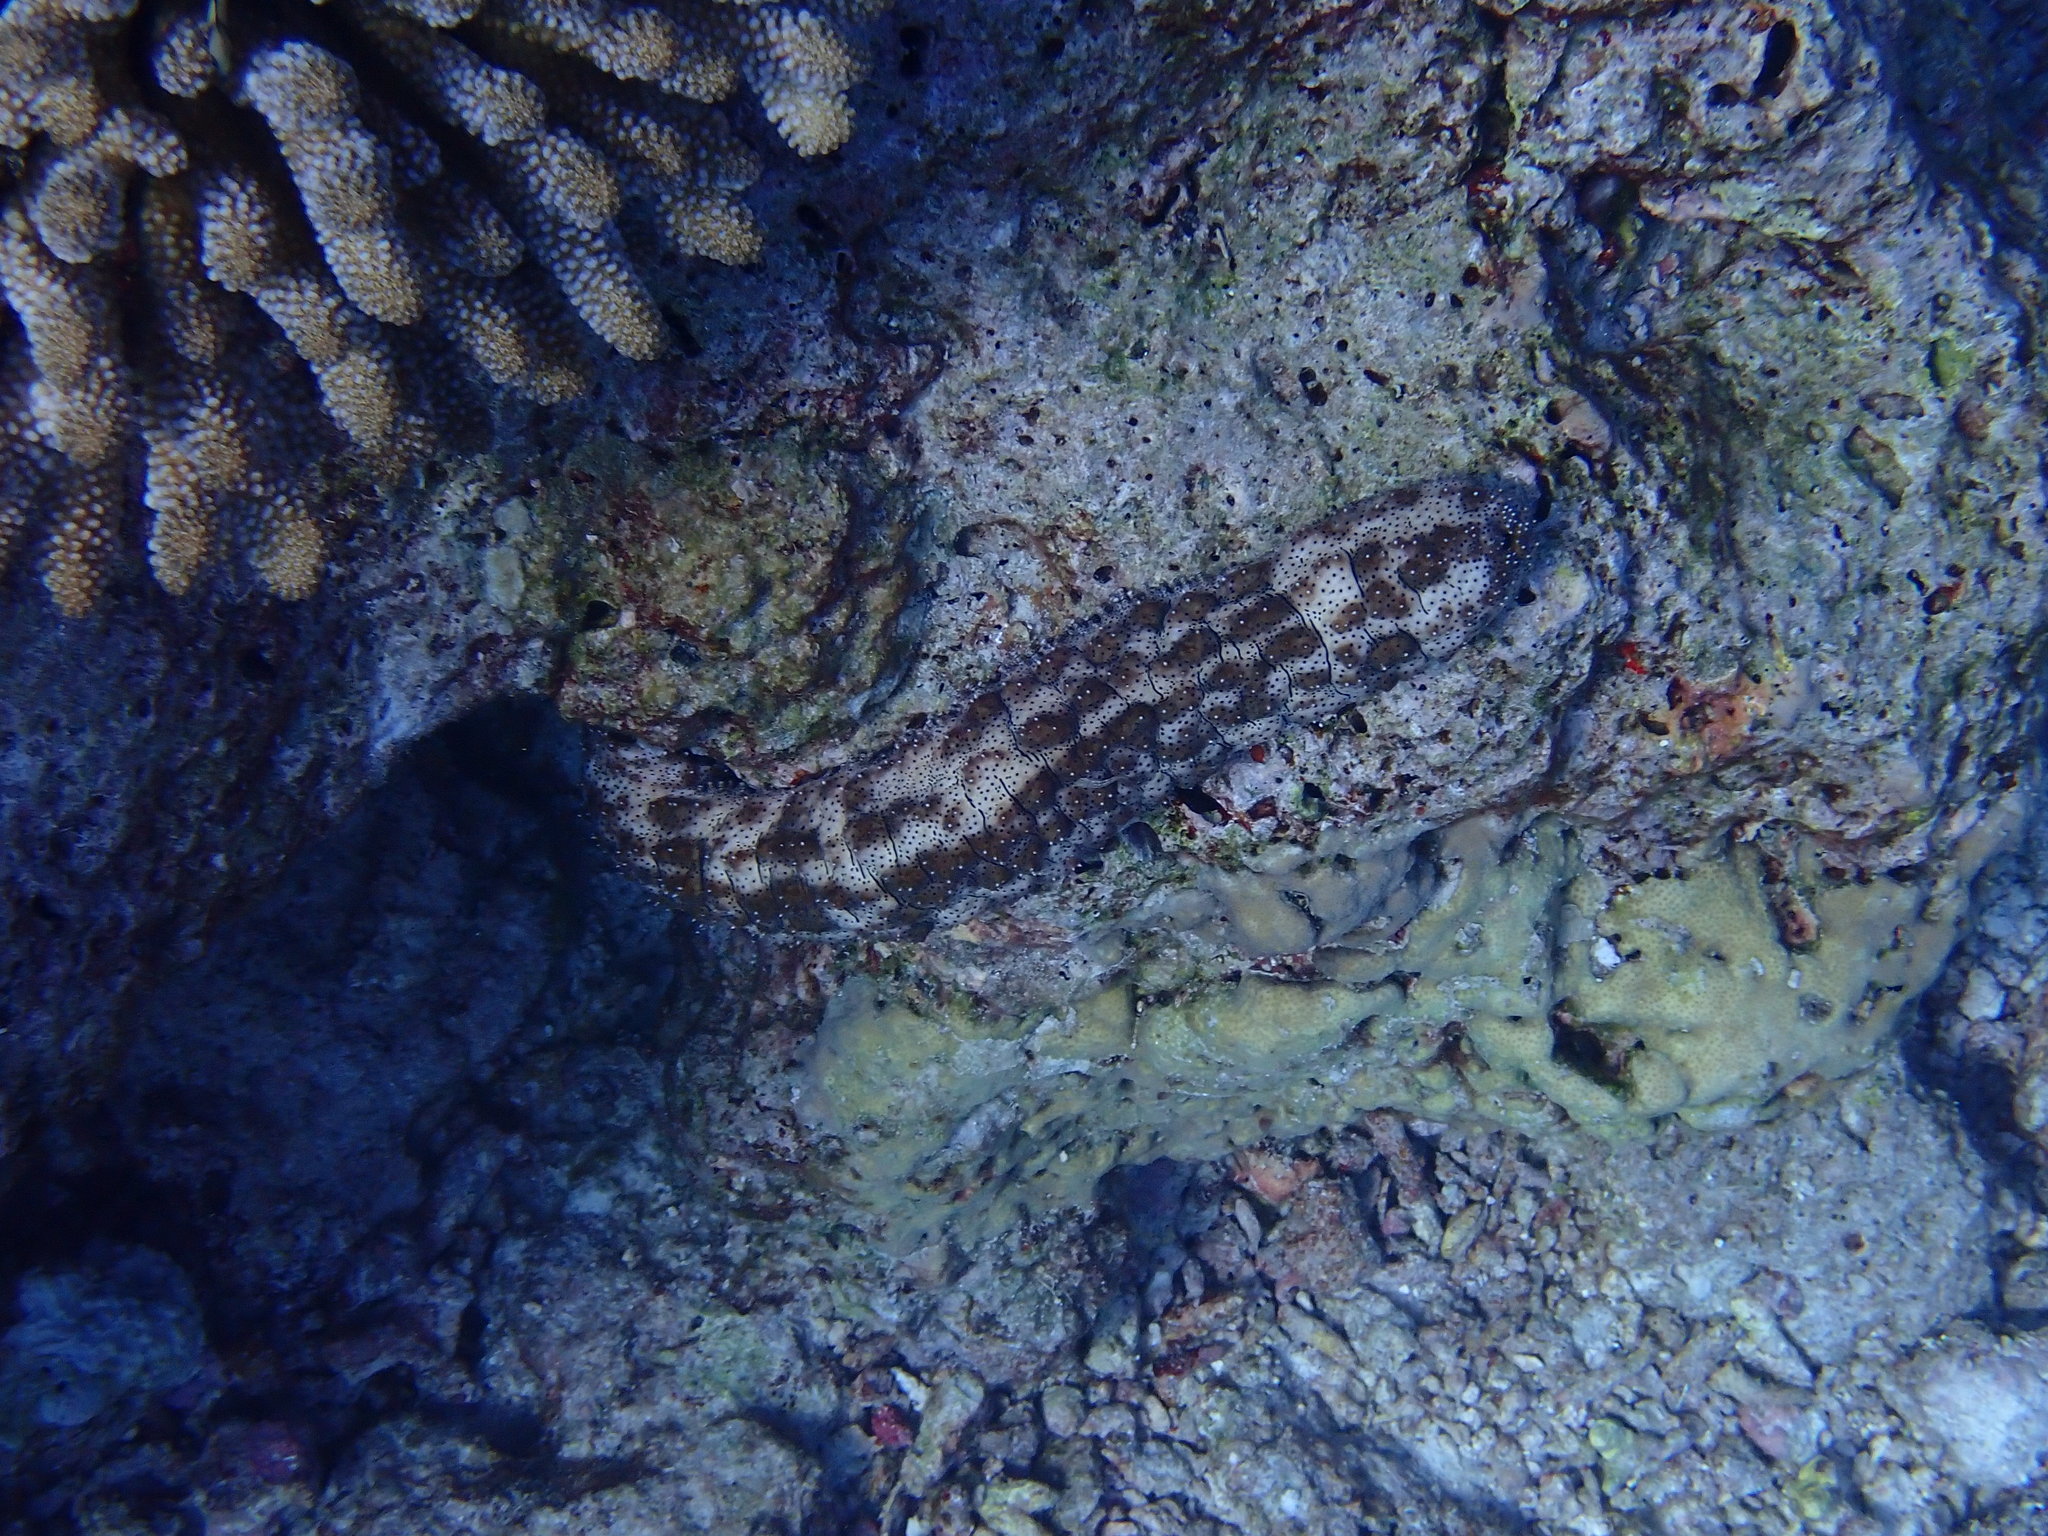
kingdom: Animalia
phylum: Echinodermata
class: Holothuroidea
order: Holothuriida
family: Holothuriidae
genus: Pearsonothuria
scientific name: Pearsonothuria graeffei
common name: Blackspotted sea cucumber
